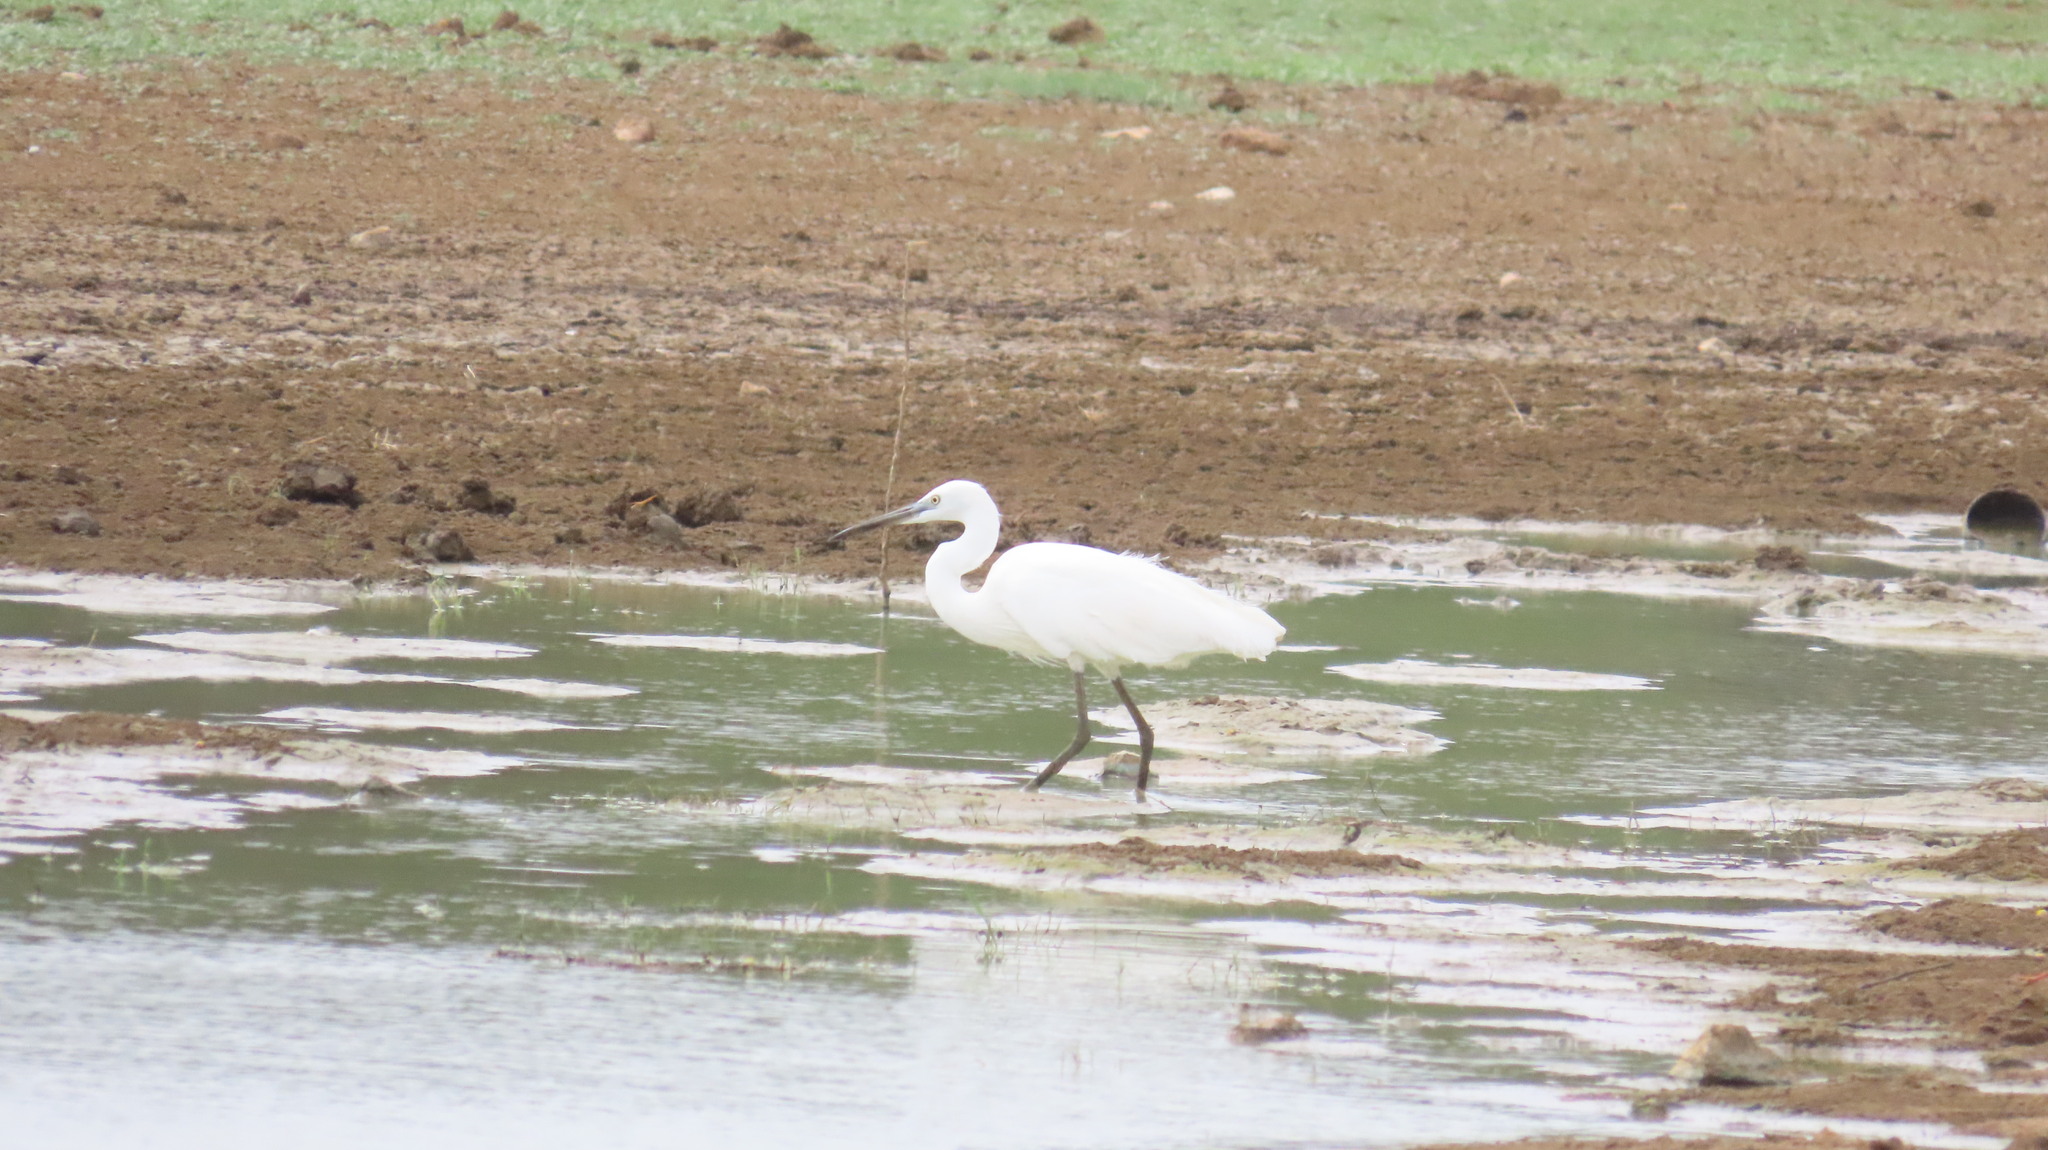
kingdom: Animalia
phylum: Chordata
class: Aves
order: Pelecaniformes
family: Ardeidae
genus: Egretta
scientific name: Egretta garzetta
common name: Little egret
